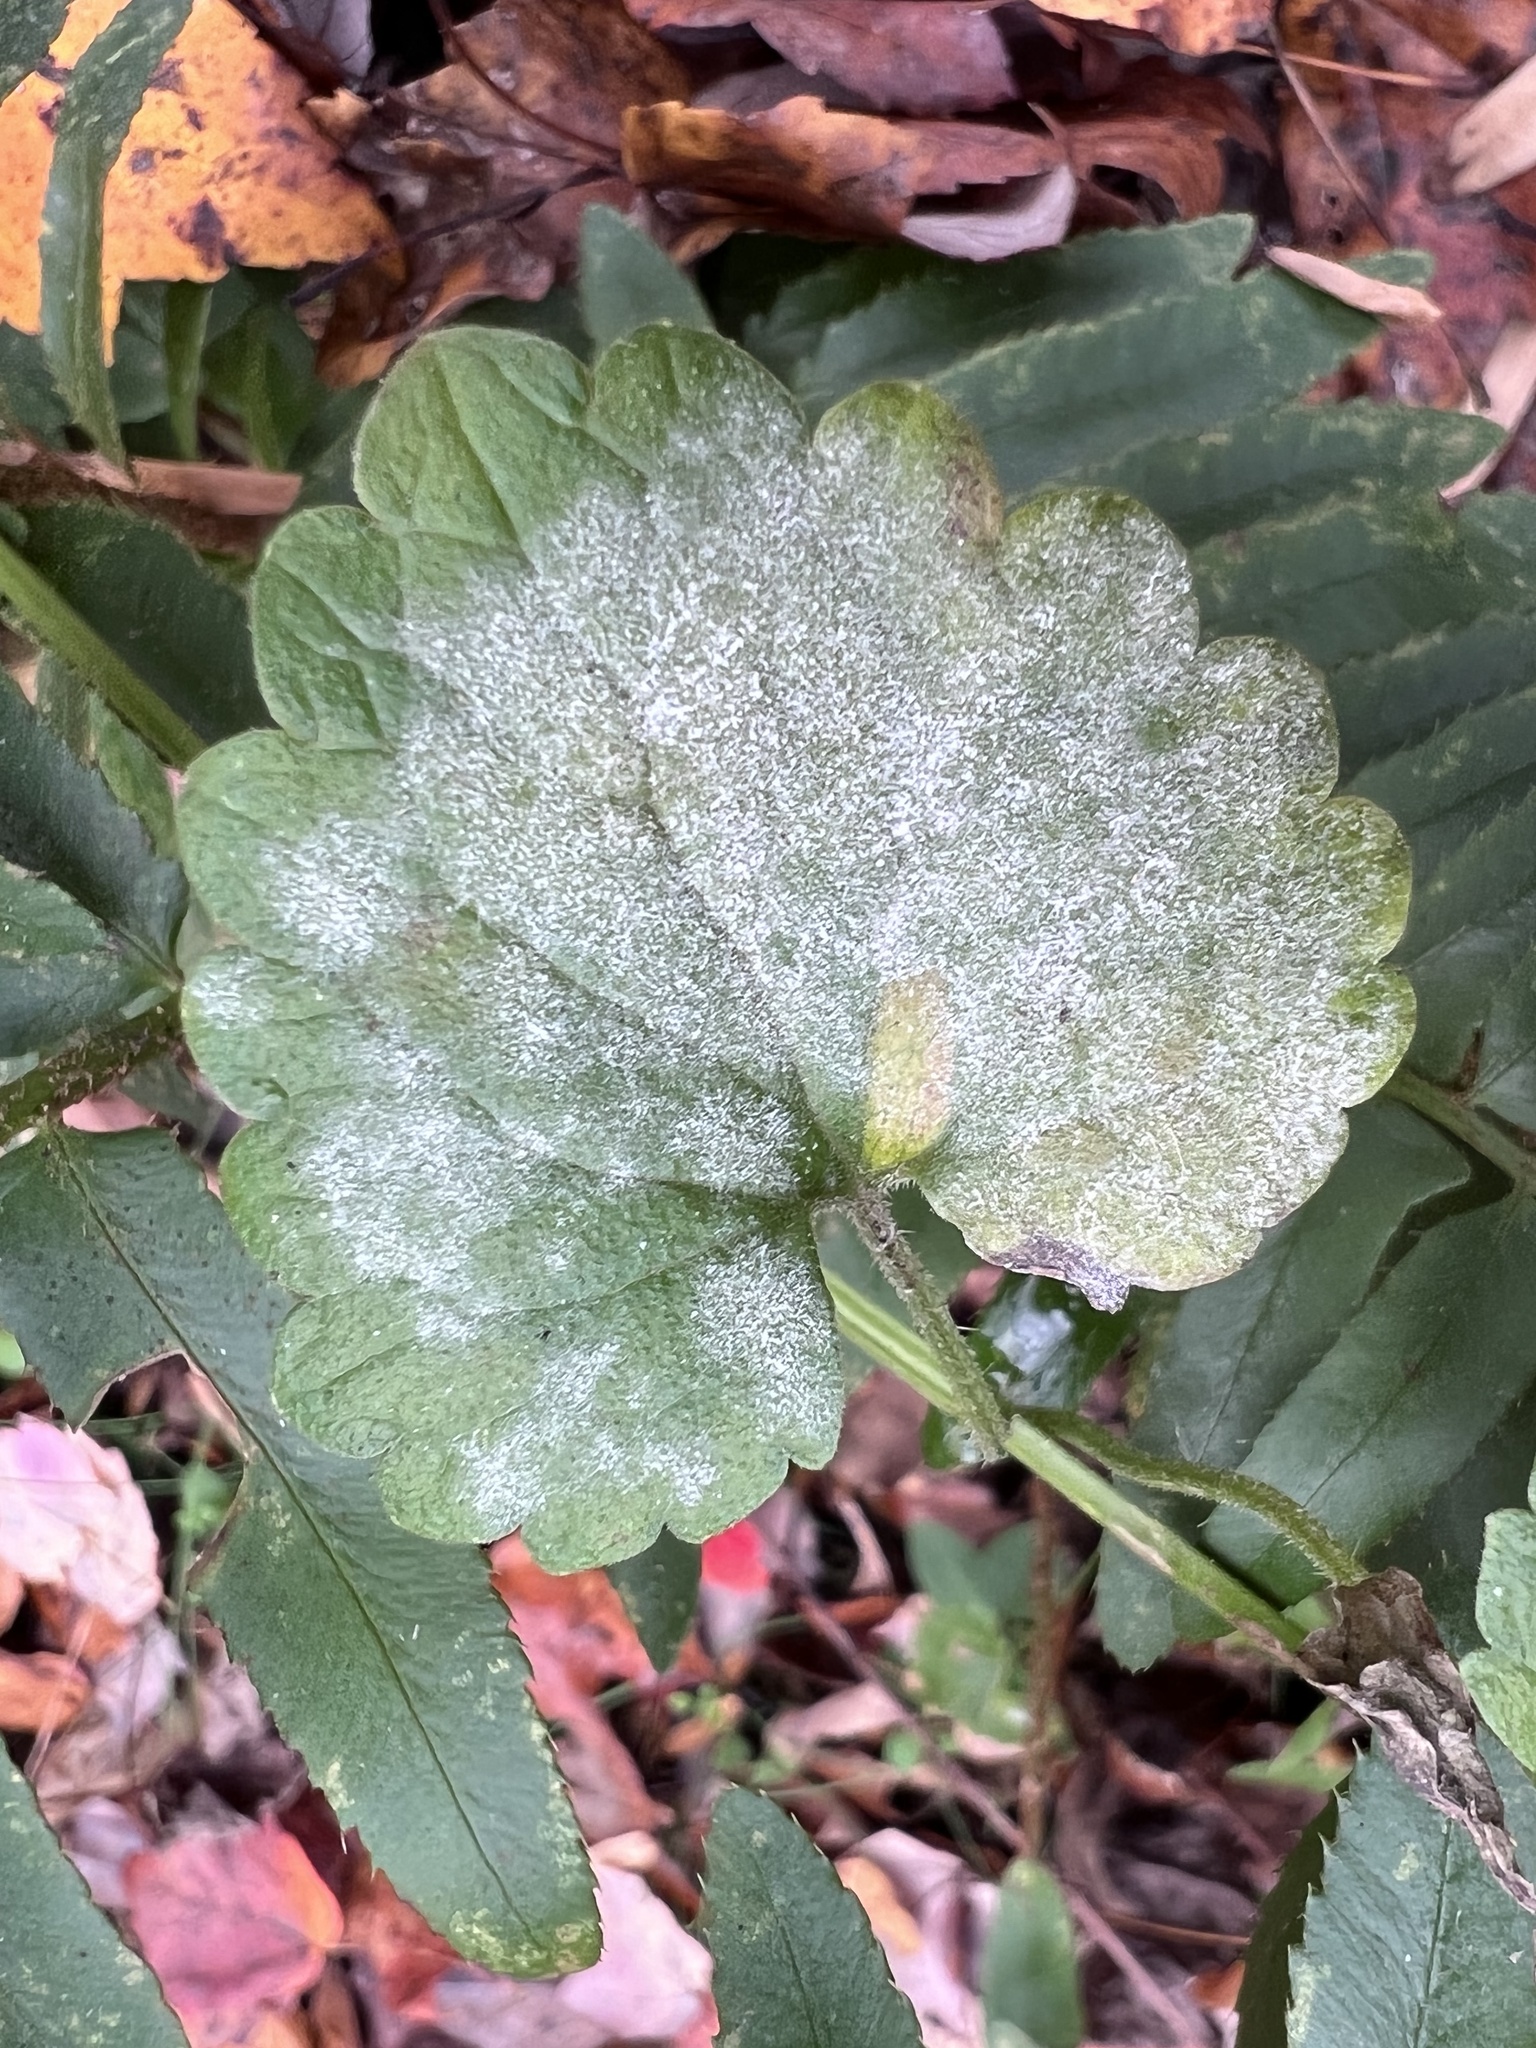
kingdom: Fungi
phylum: Ascomycota
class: Leotiomycetes
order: Helotiales
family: Erysiphaceae
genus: Neoerysiphe
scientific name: Neoerysiphe galeopsidis
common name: Mint mildew
